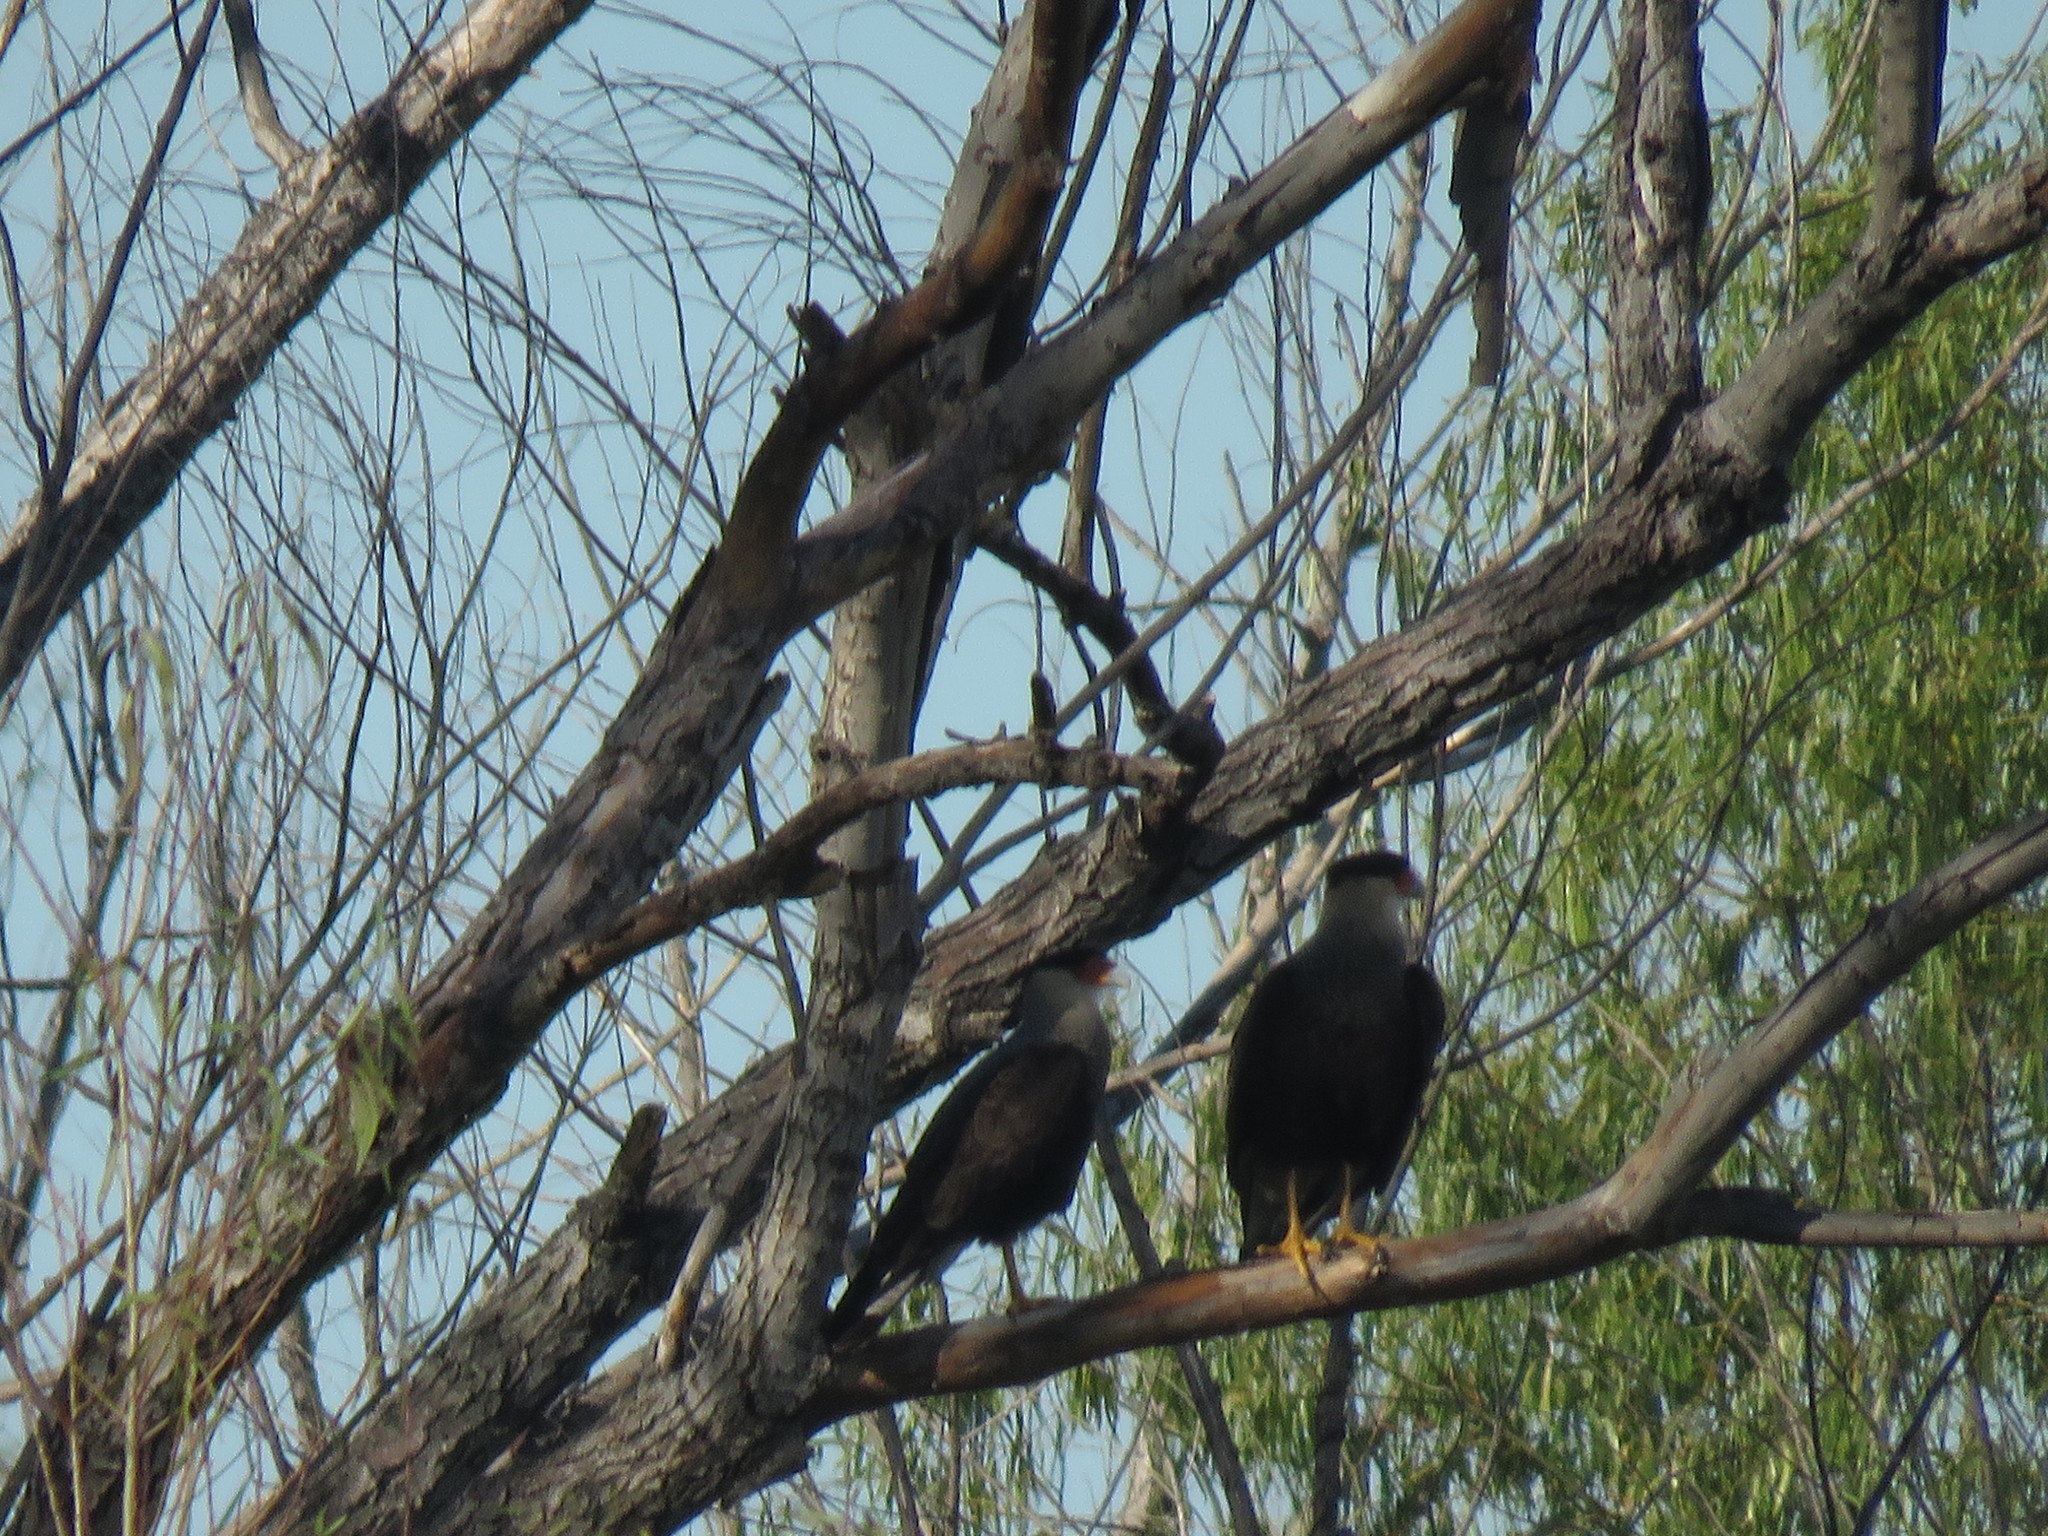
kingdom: Animalia
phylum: Chordata
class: Aves
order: Falconiformes
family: Falconidae
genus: Caracara
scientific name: Caracara plancus
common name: Southern caracara
